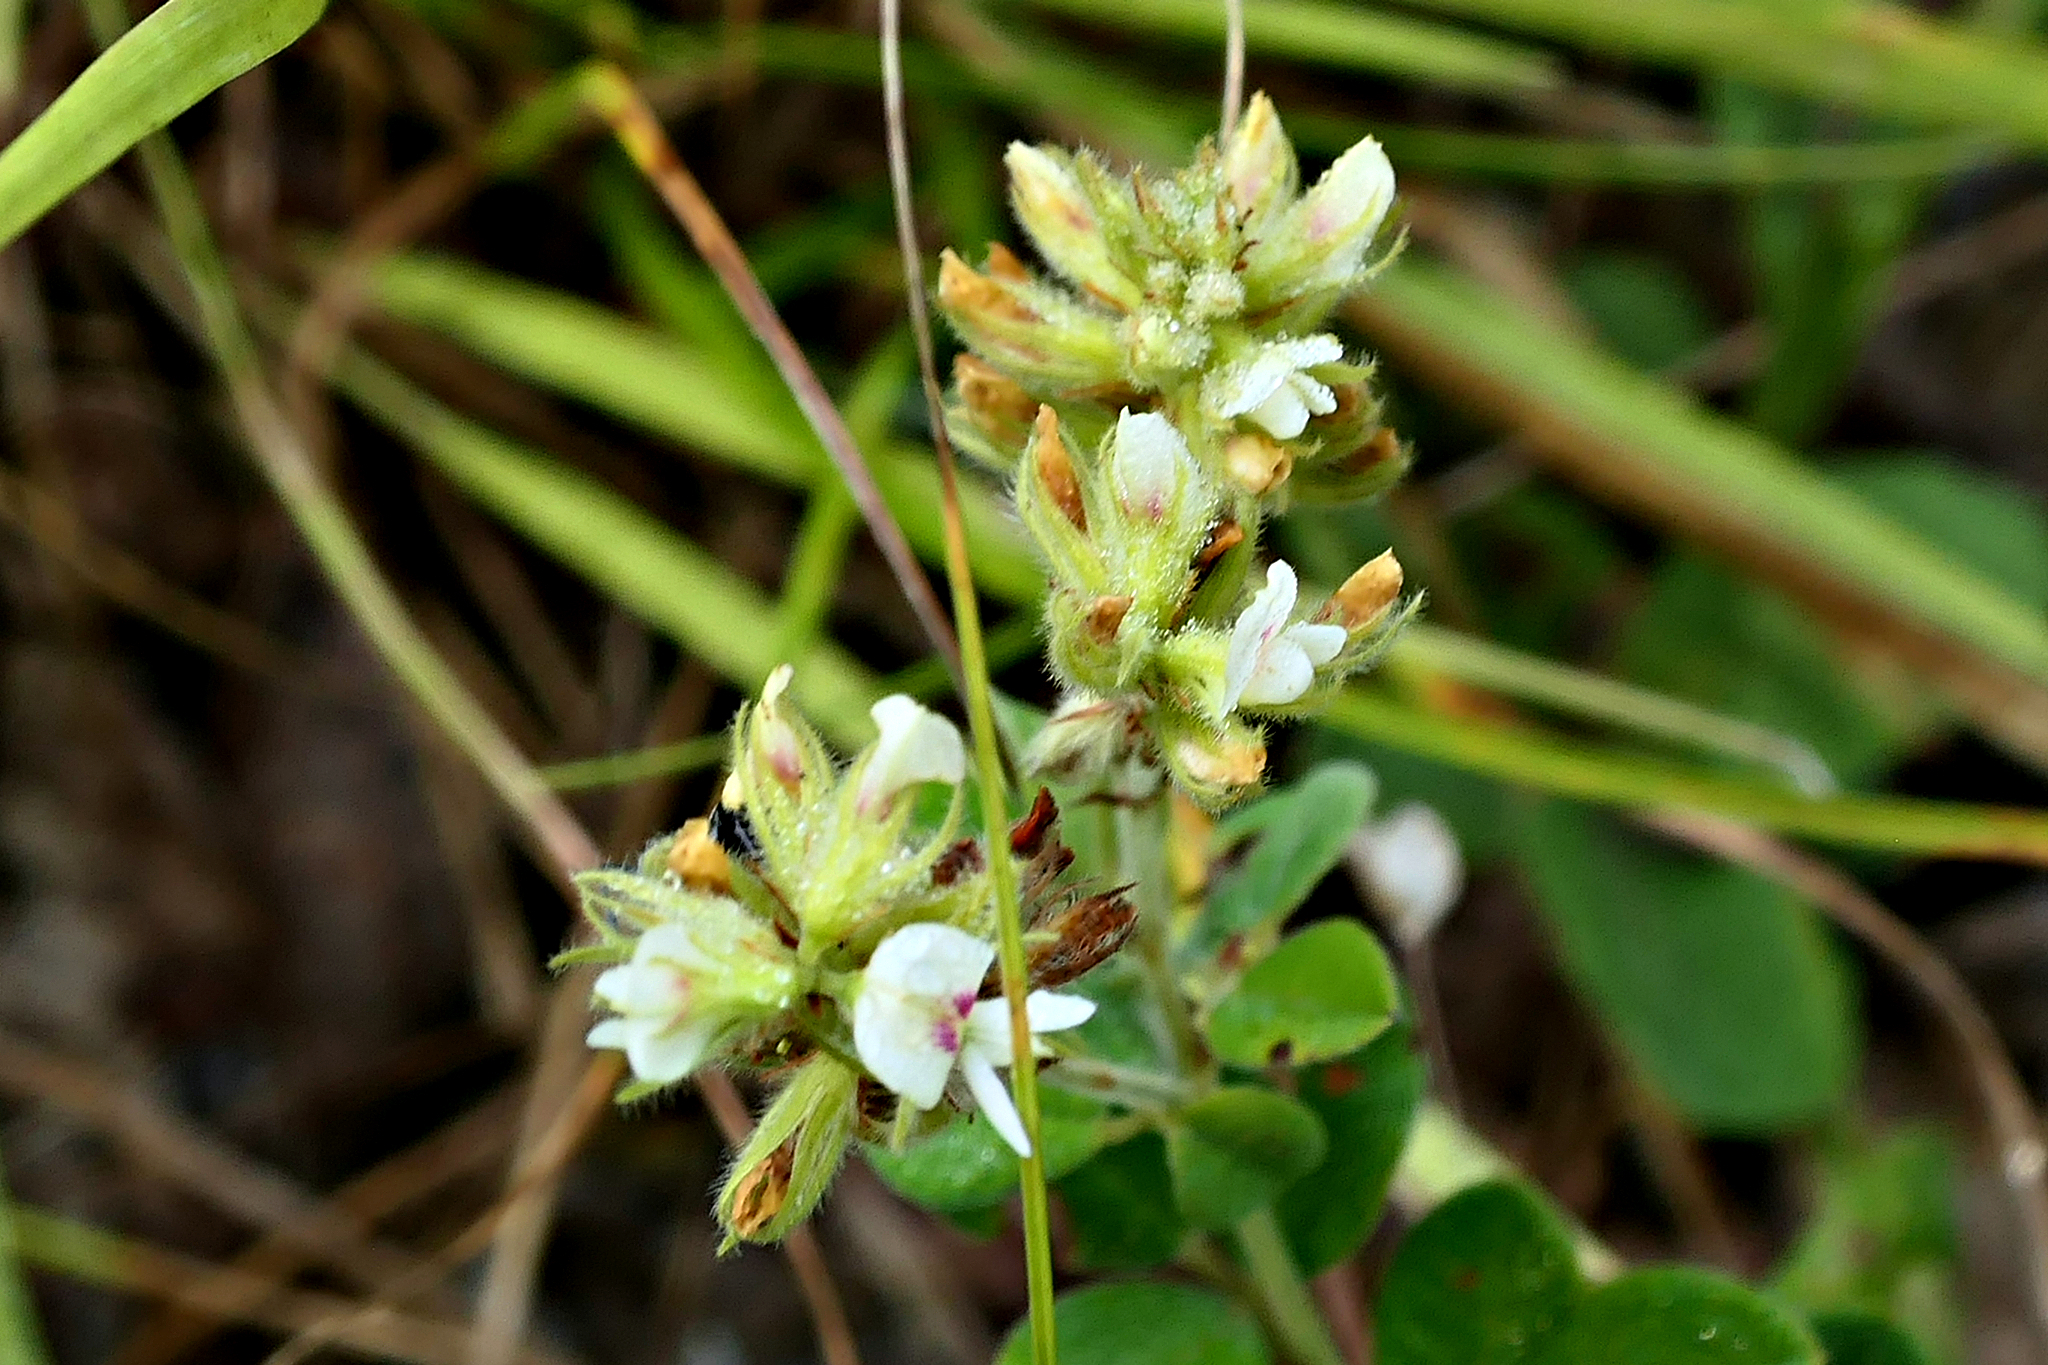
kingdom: Plantae
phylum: Tracheophyta
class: Magnoliopsida
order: Fabales
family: Fabaceae
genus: Lespedeza
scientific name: Lespedeza hirta
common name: Hairy lespedeza
